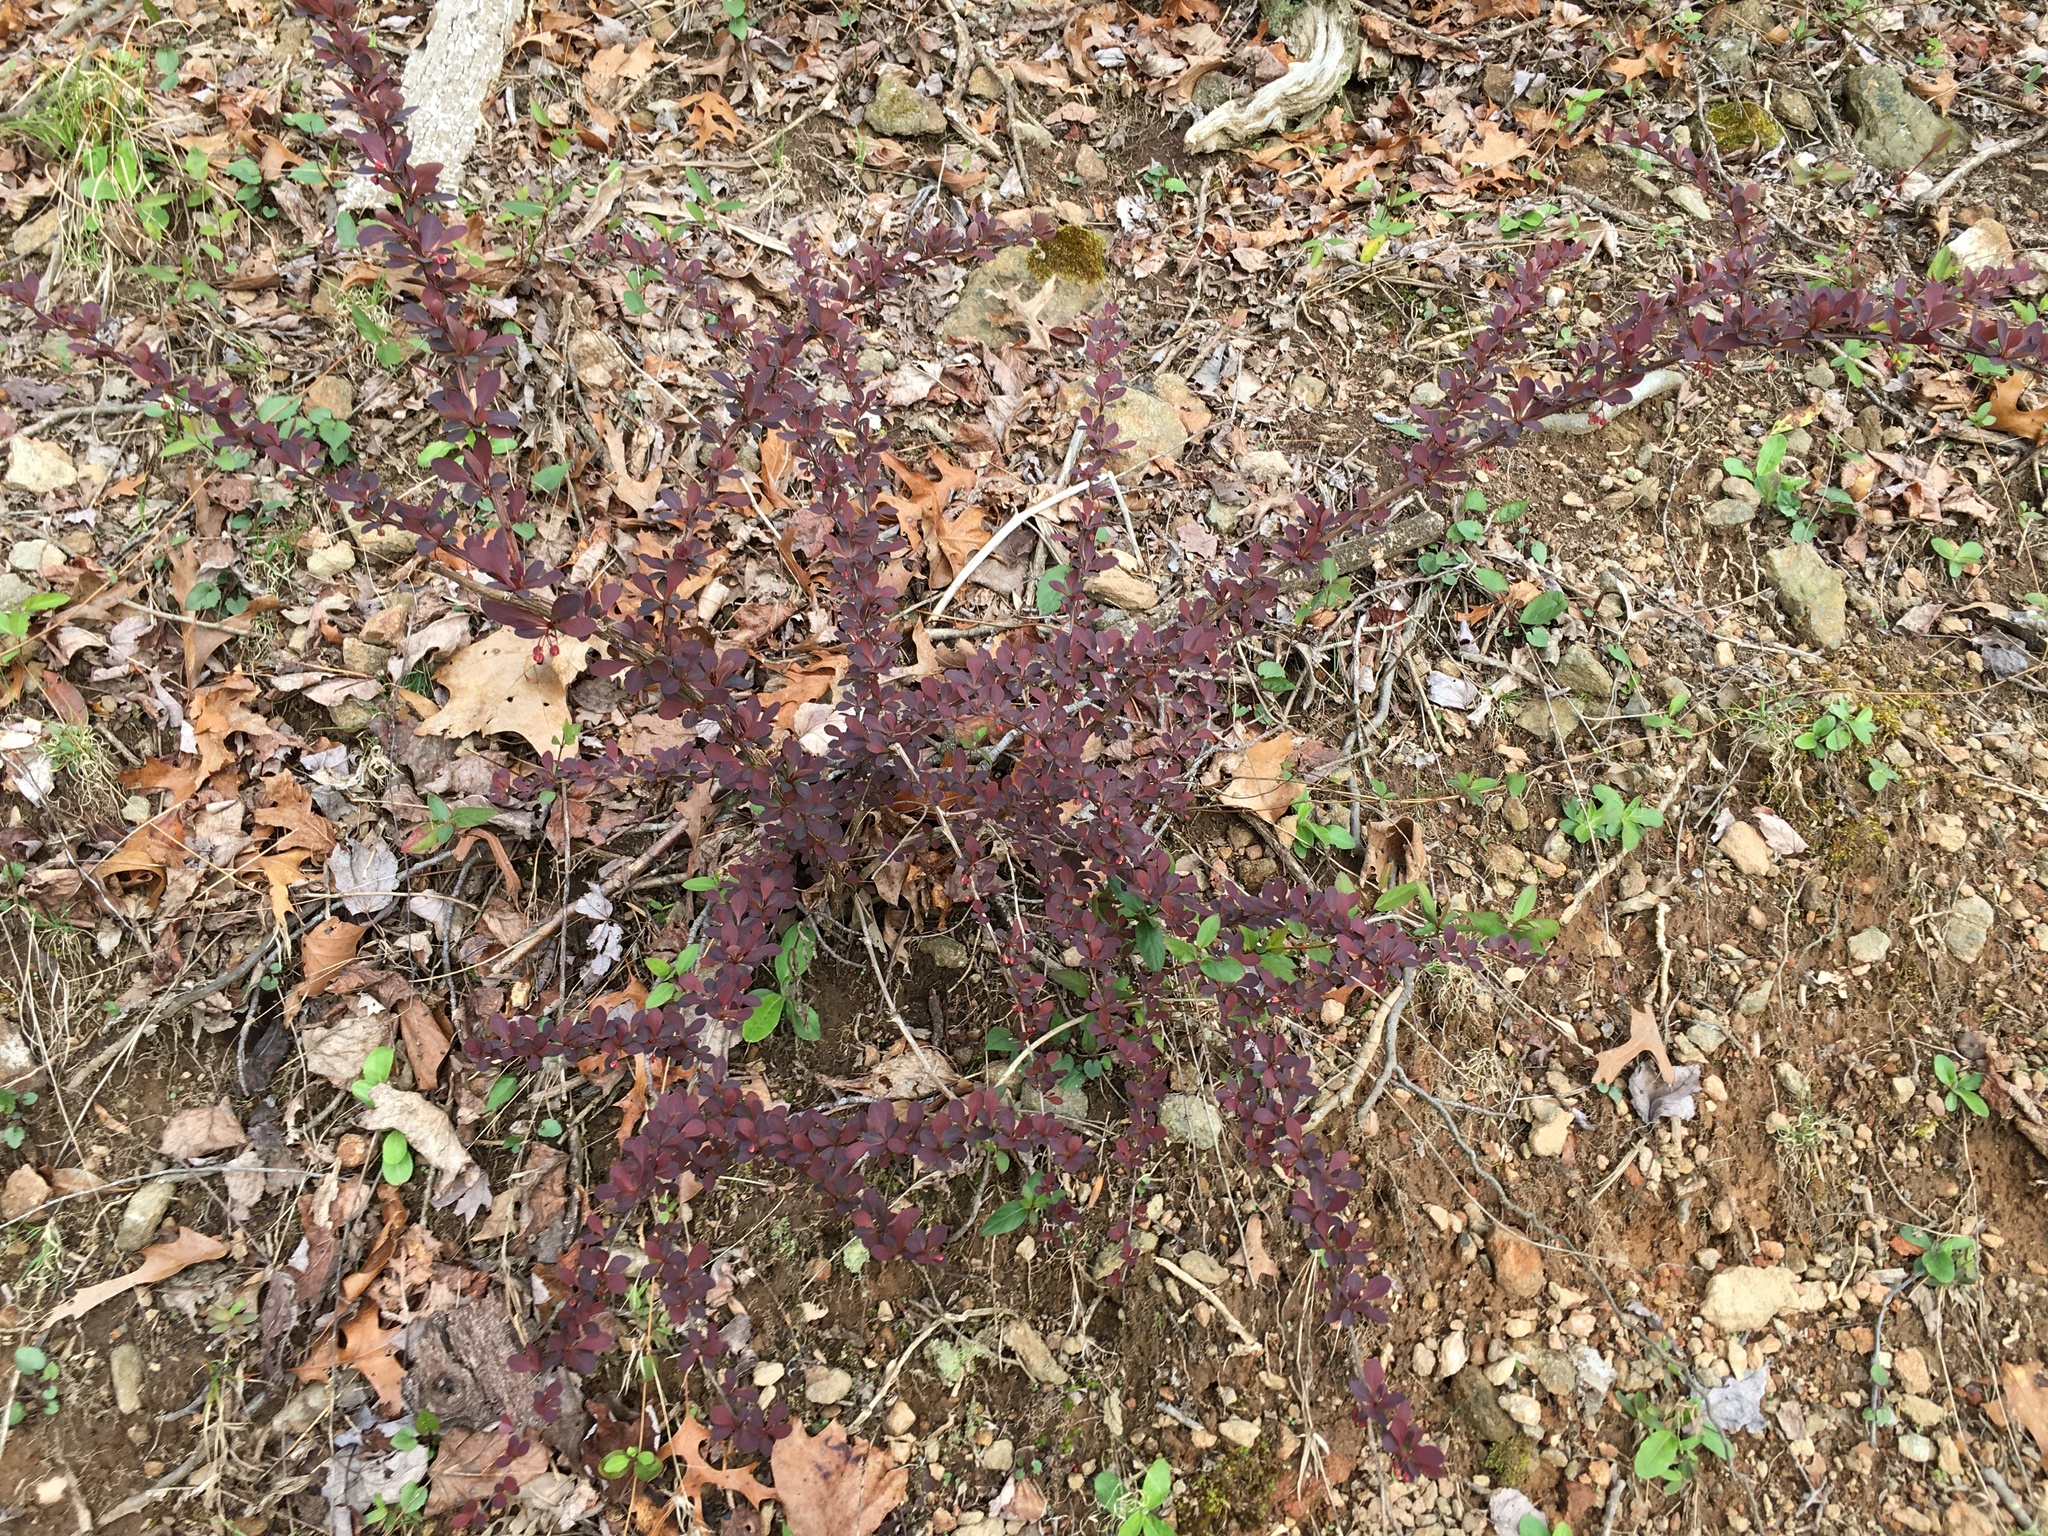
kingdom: Plantae
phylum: Tracheophyta
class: Magnoliopsida
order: Ranunculales
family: Berberidaceae
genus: Berberis
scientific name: Berberis thunbergii
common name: Japanese barberry
